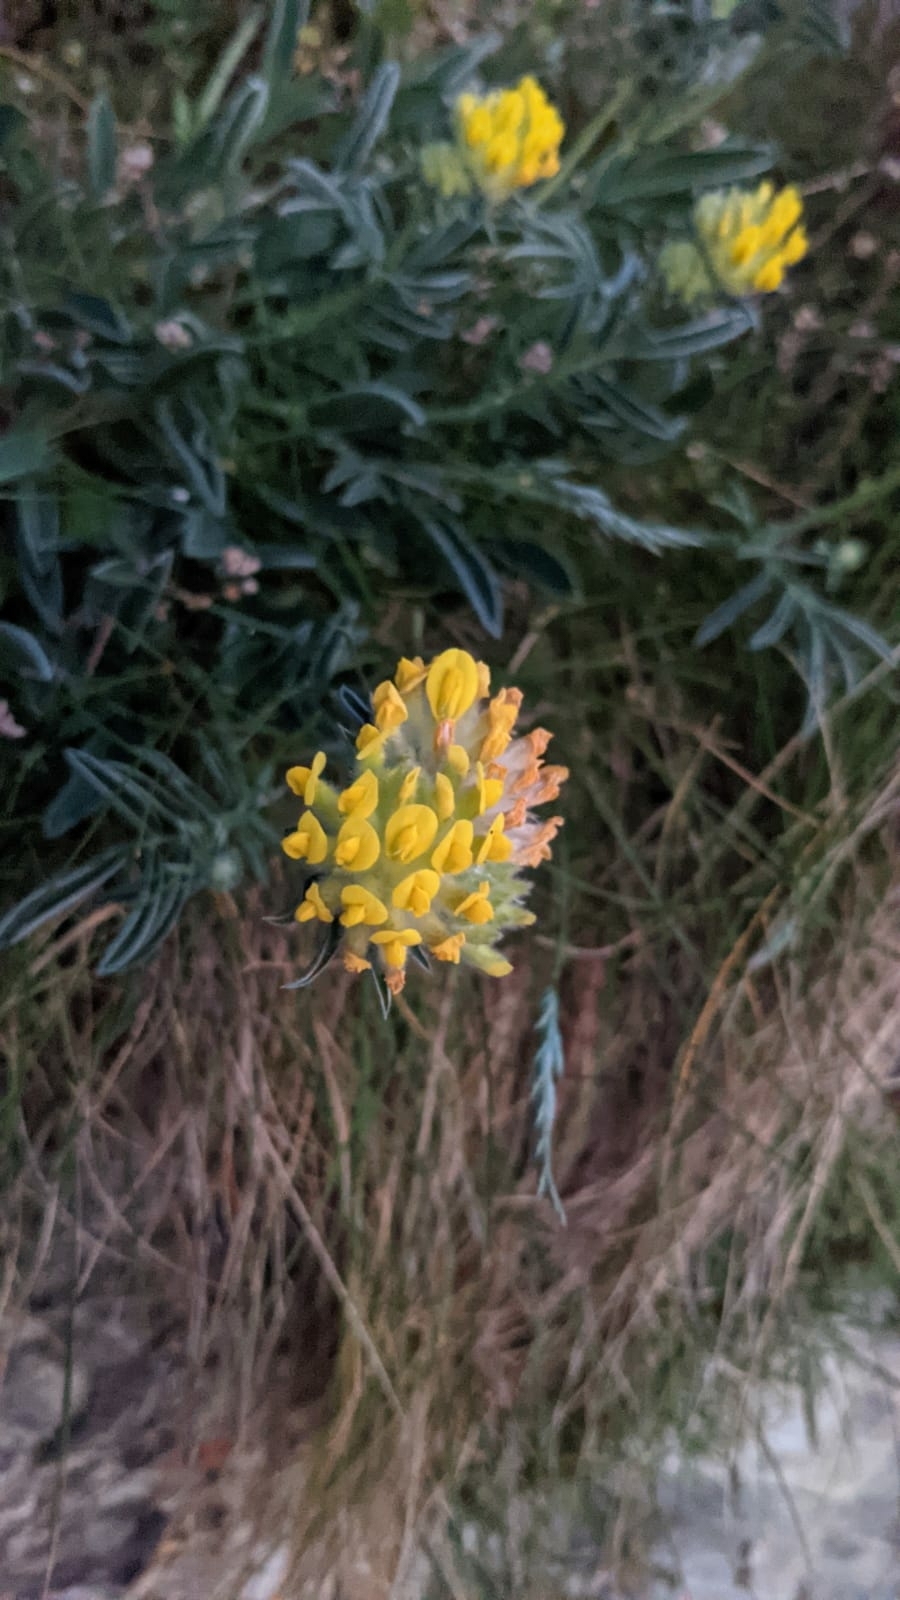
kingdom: Plantae
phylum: Tracheophyta
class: Magnoliopsida
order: Fabales
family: Fabaceae
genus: Anthyllis
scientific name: Anthyllis vulneraria
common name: Kidney vetch
